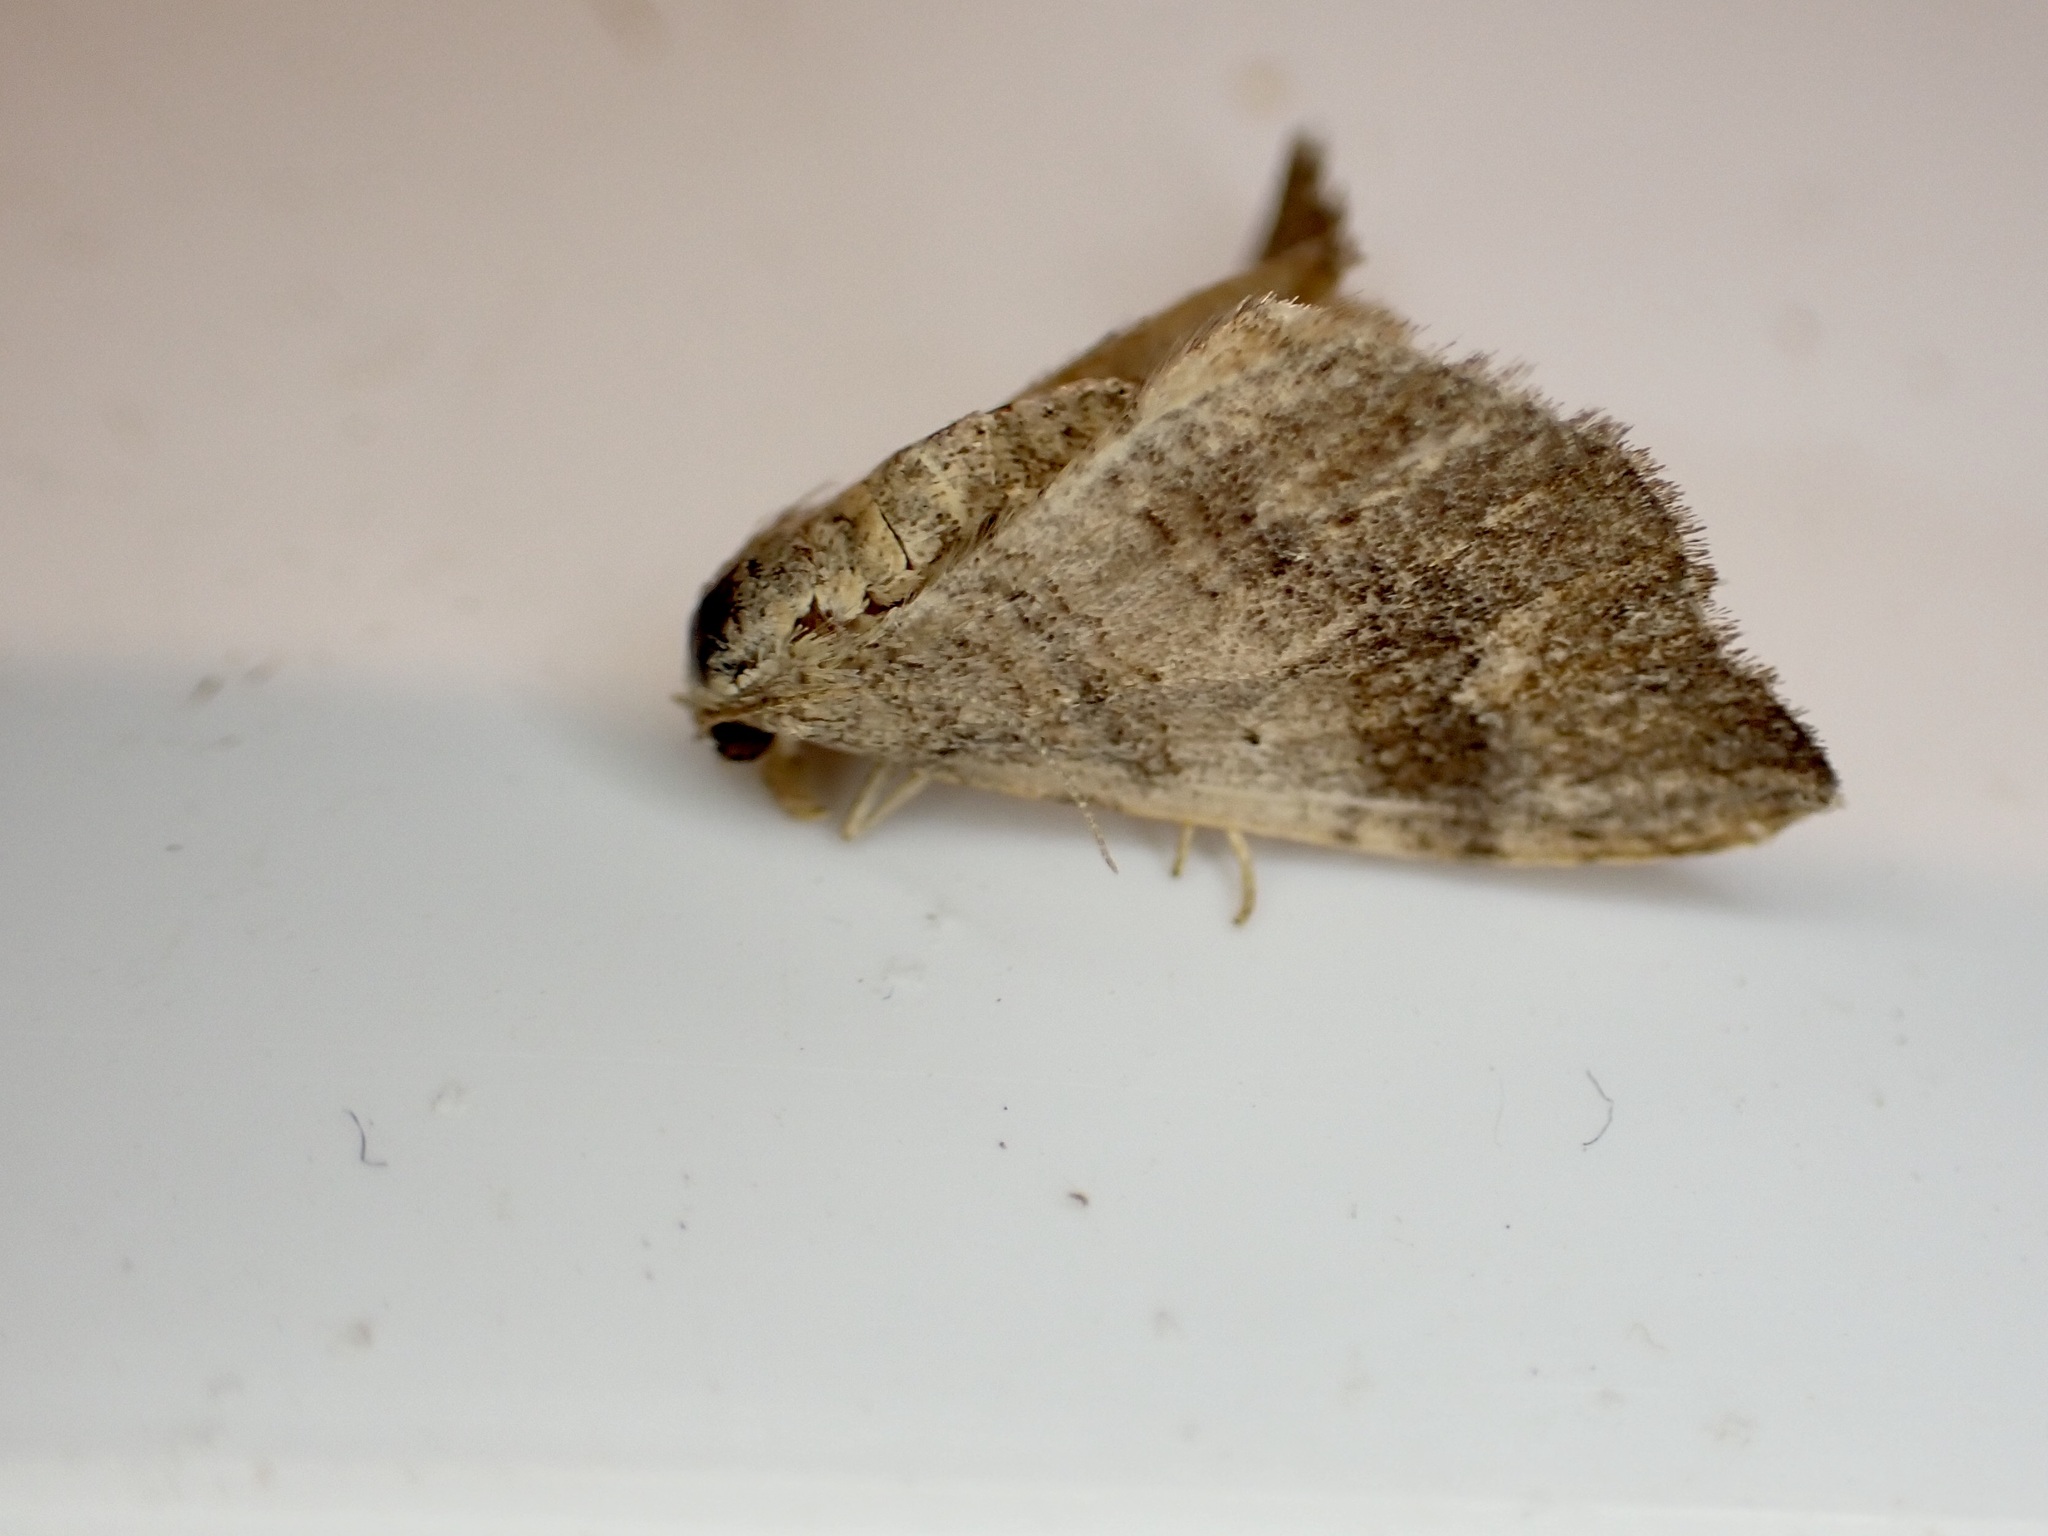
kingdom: Animalia
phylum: Arthropoda
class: Insecta
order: Lepidoptera
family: Geometridae
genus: Homodotis
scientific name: Homodotis megaspilata
